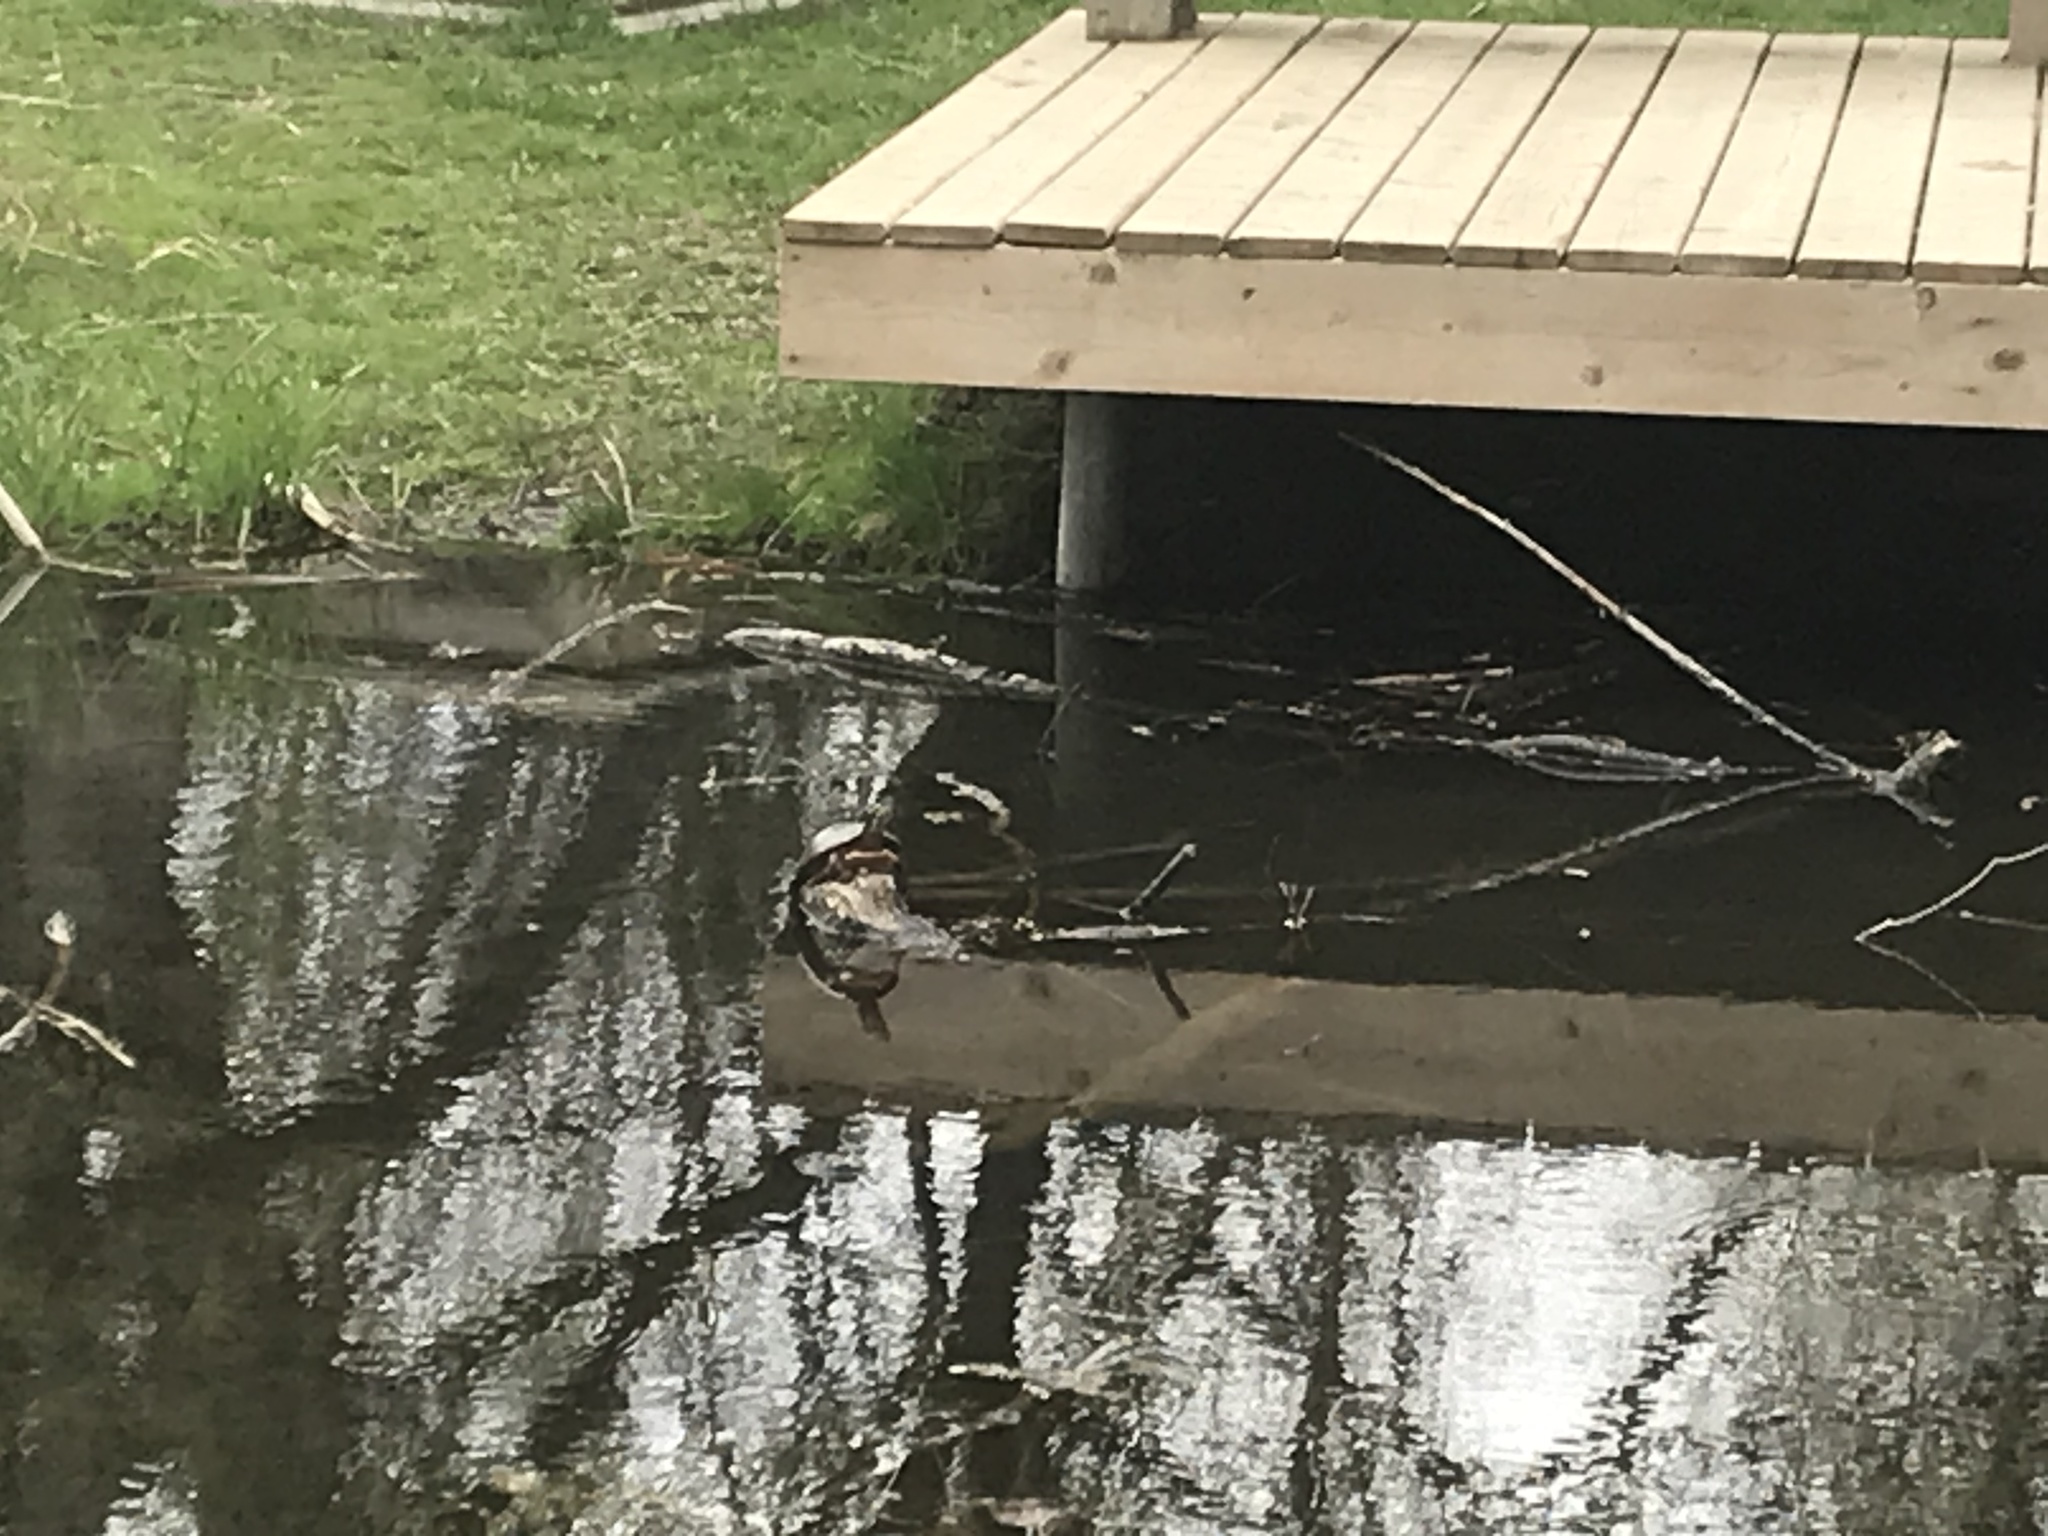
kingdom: Animalia
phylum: Chordata
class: Testudines
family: Emydidae
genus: Chrysemys
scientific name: Chrysemys picta
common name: Painted turtle
